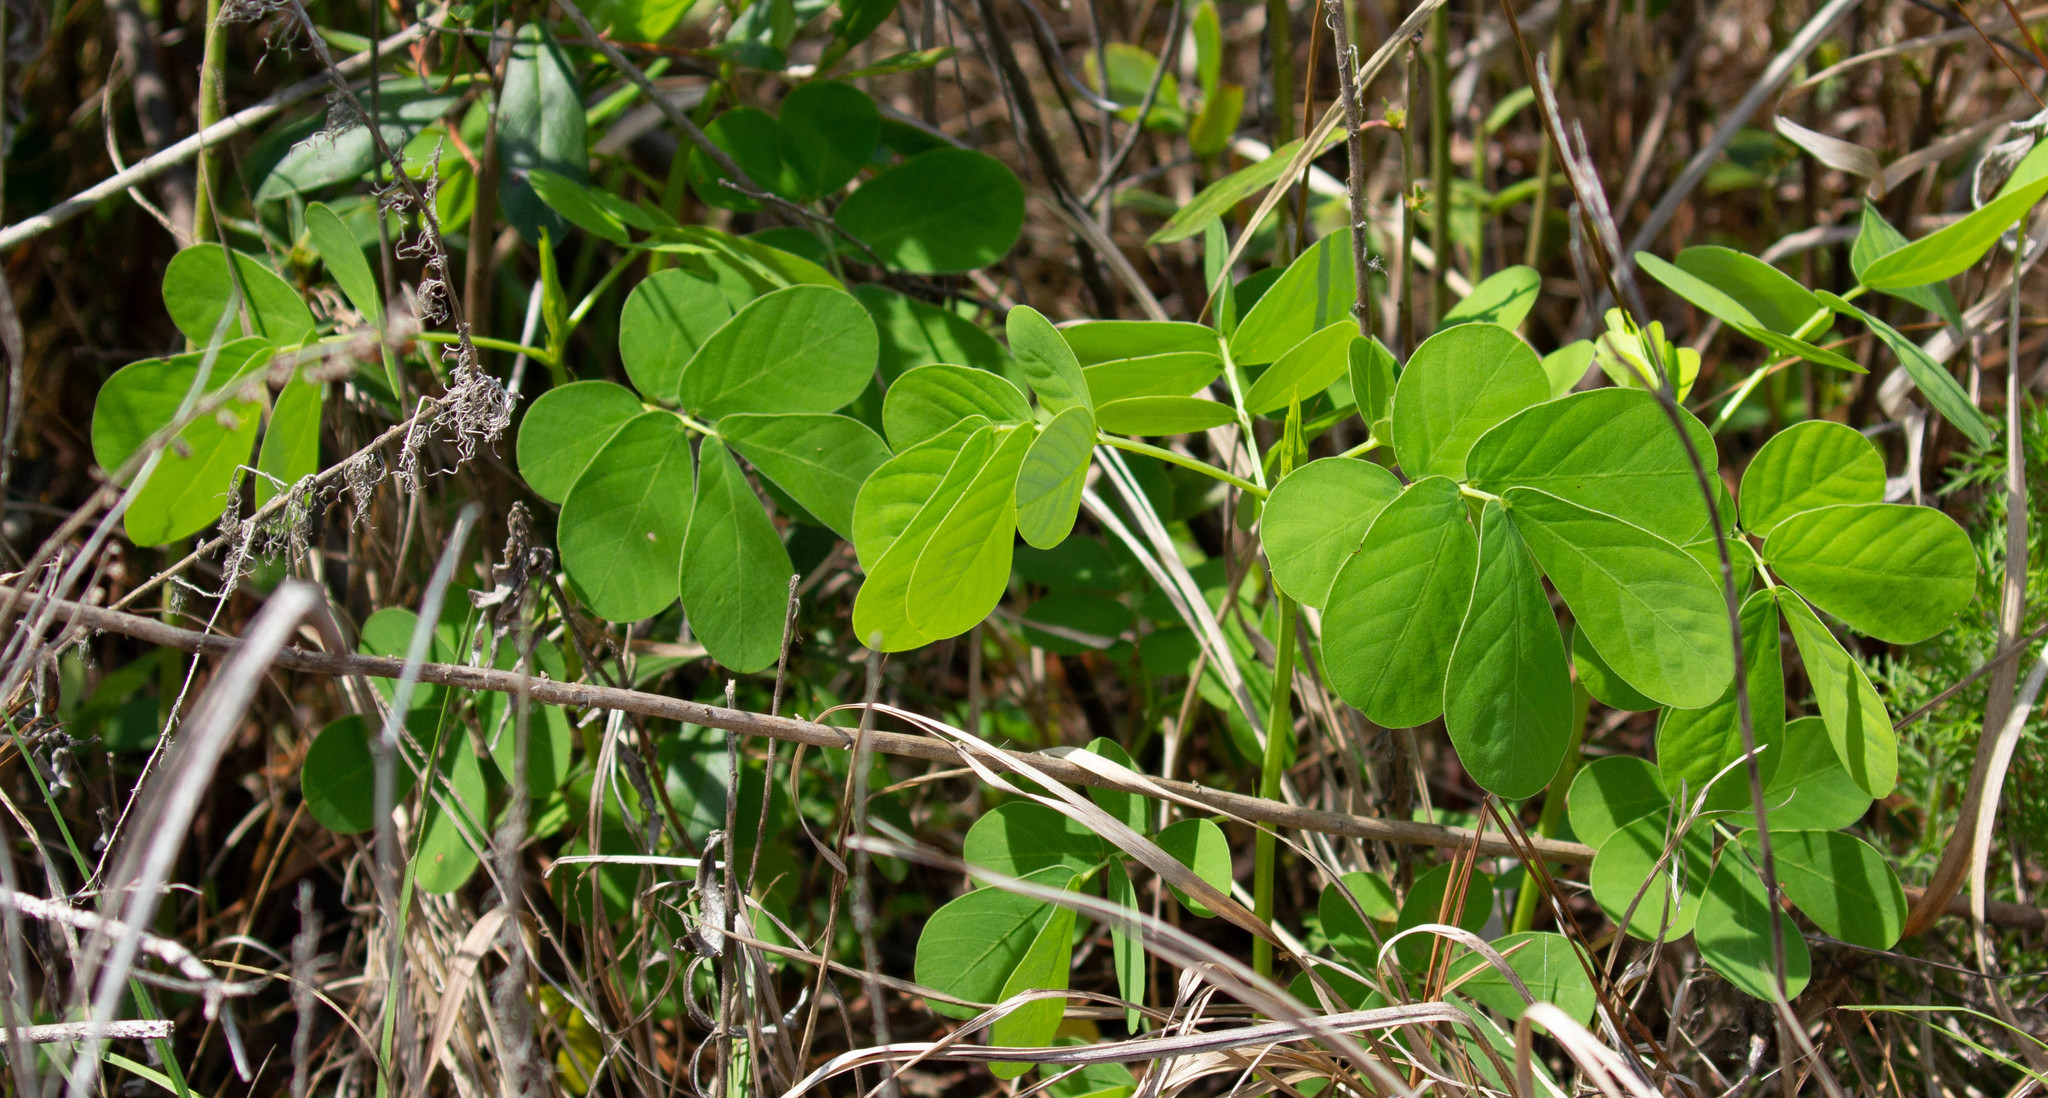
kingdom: Plantae
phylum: Tracheophyta
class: Magnoliopsida
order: Fabales
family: Fabaceae
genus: Senna
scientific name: Senna obtusifolia
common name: Java-bean
